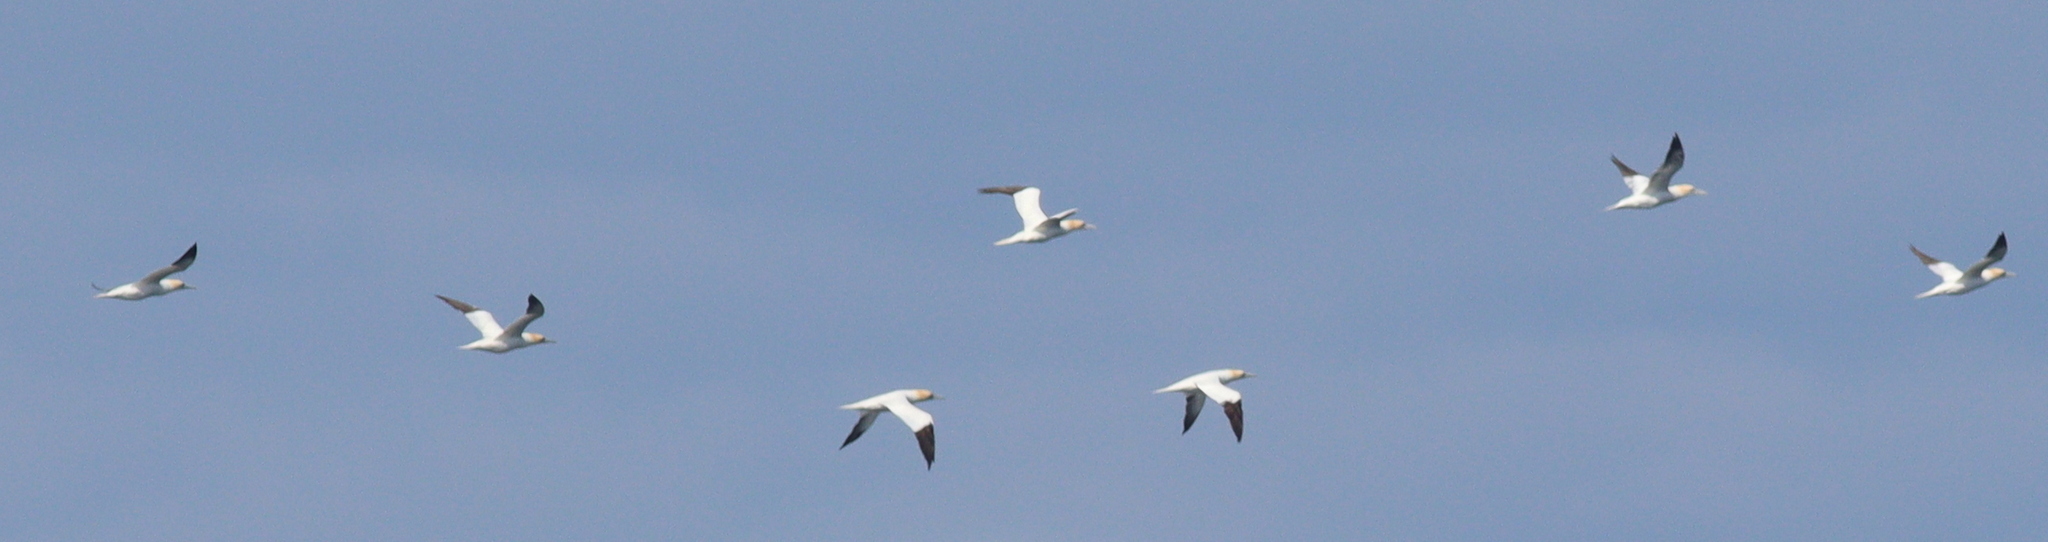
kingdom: Animalia
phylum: Chordata
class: Aves
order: Suliformes
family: Sulidae
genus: Morus
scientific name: Morus bassanus
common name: Northern gannet
